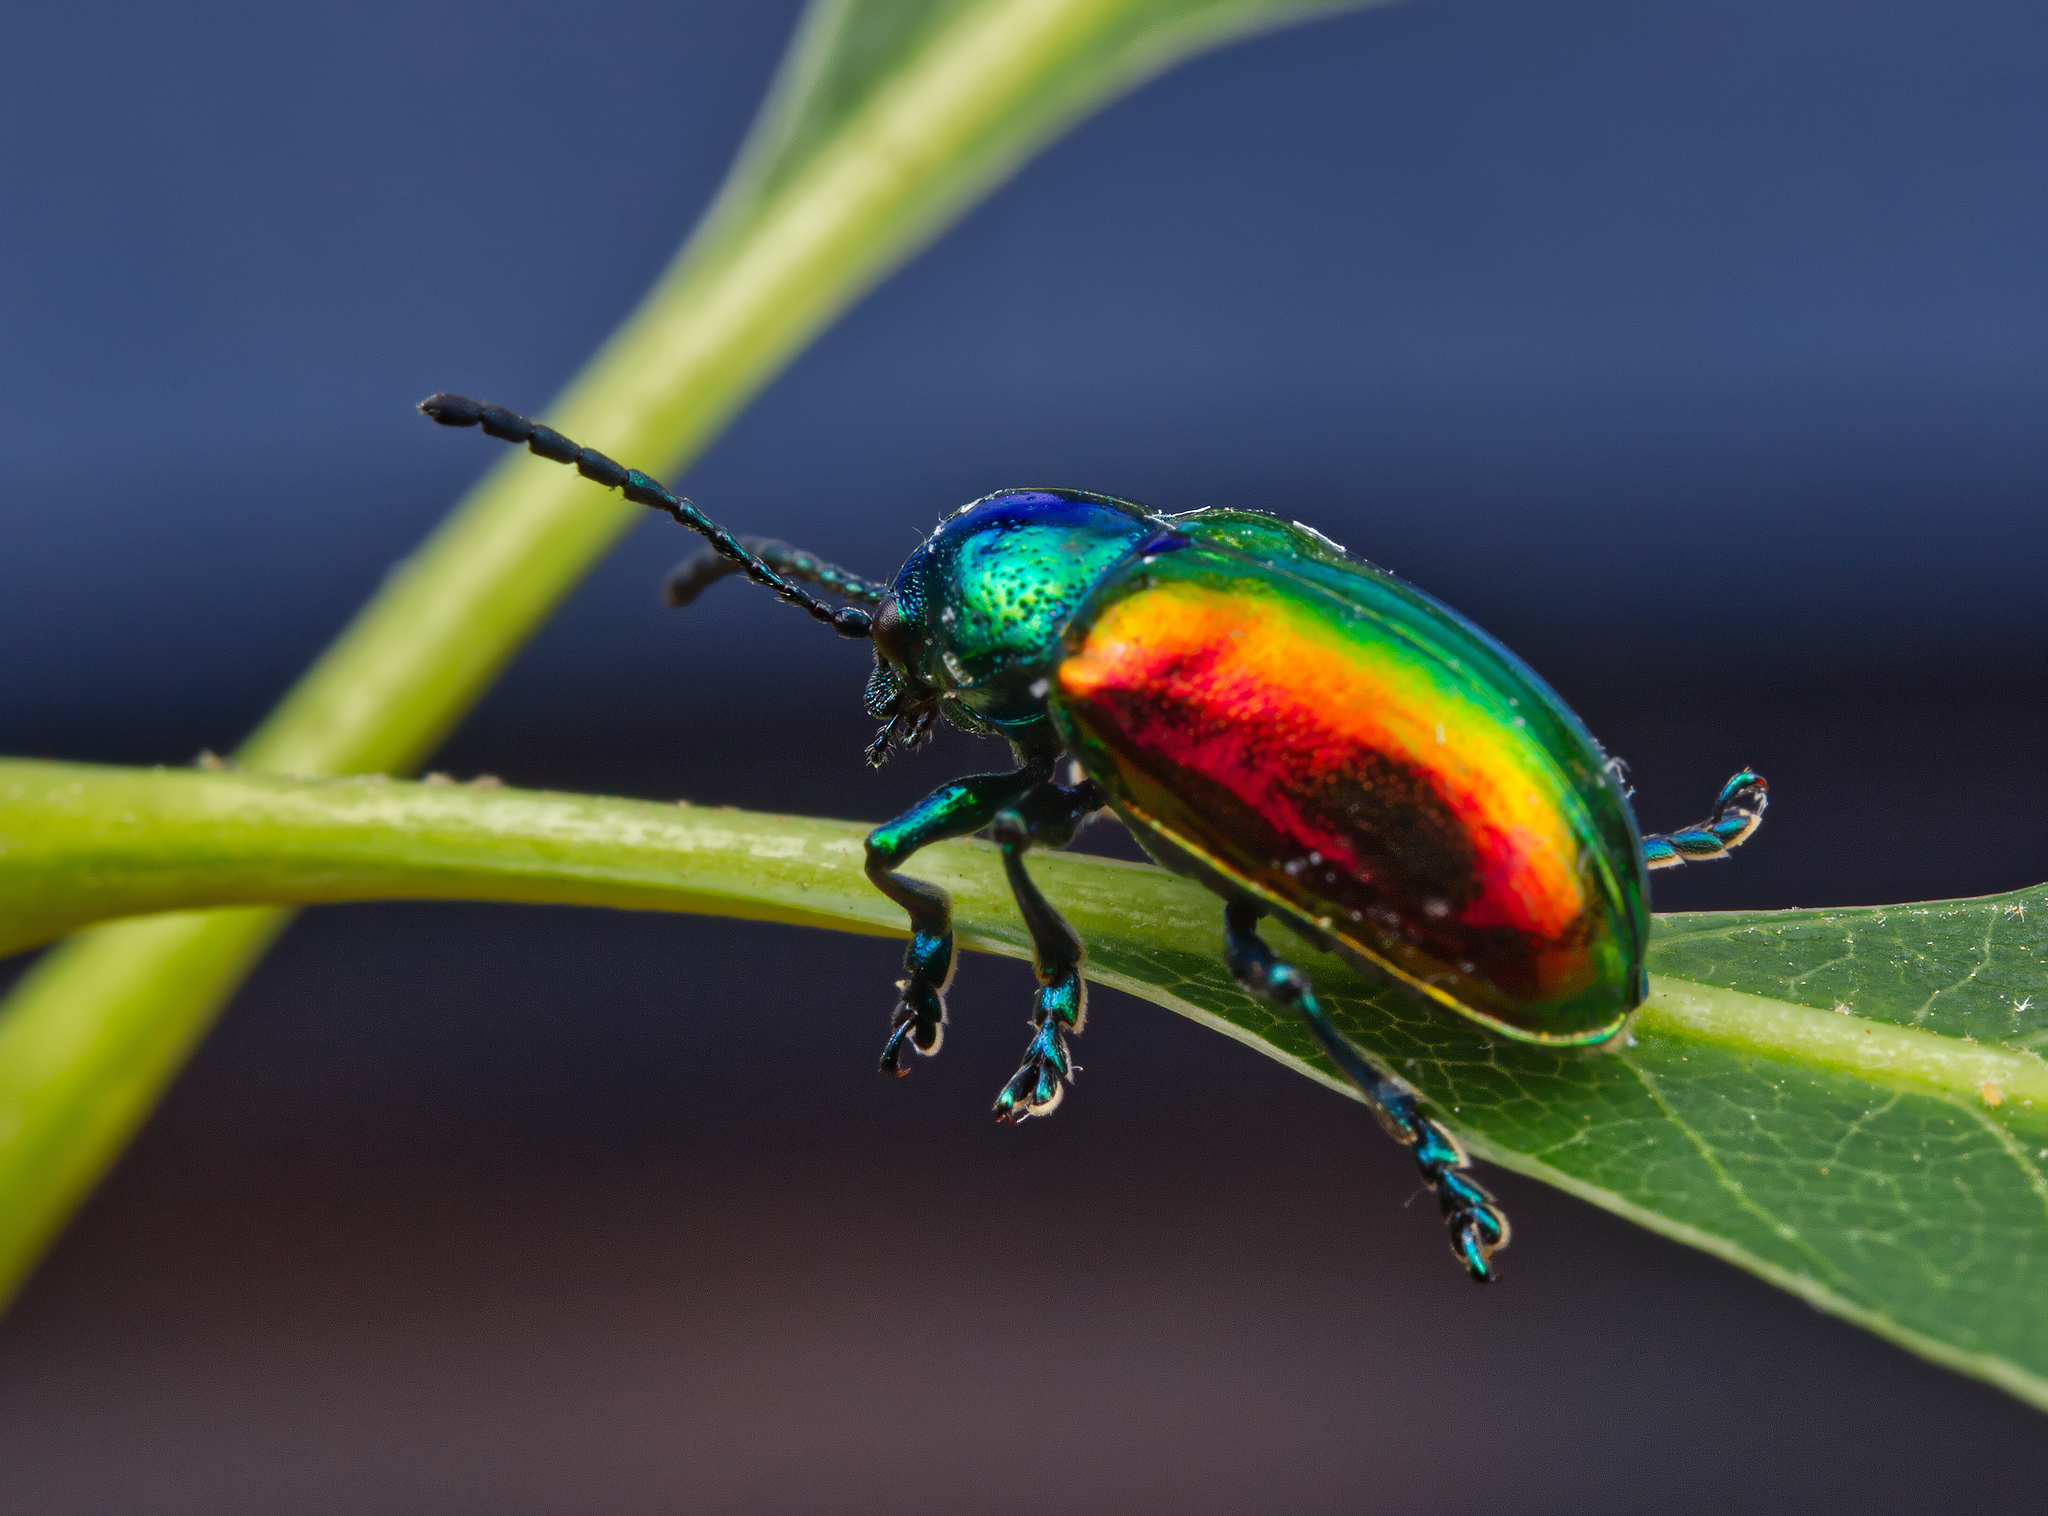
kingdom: Animalia
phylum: Arthropoda
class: Insecta
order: Coleoptera
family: Chrysomelidae
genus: Chrysochus
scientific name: Chrysochus auratus
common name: Dogbane leaf beetle
